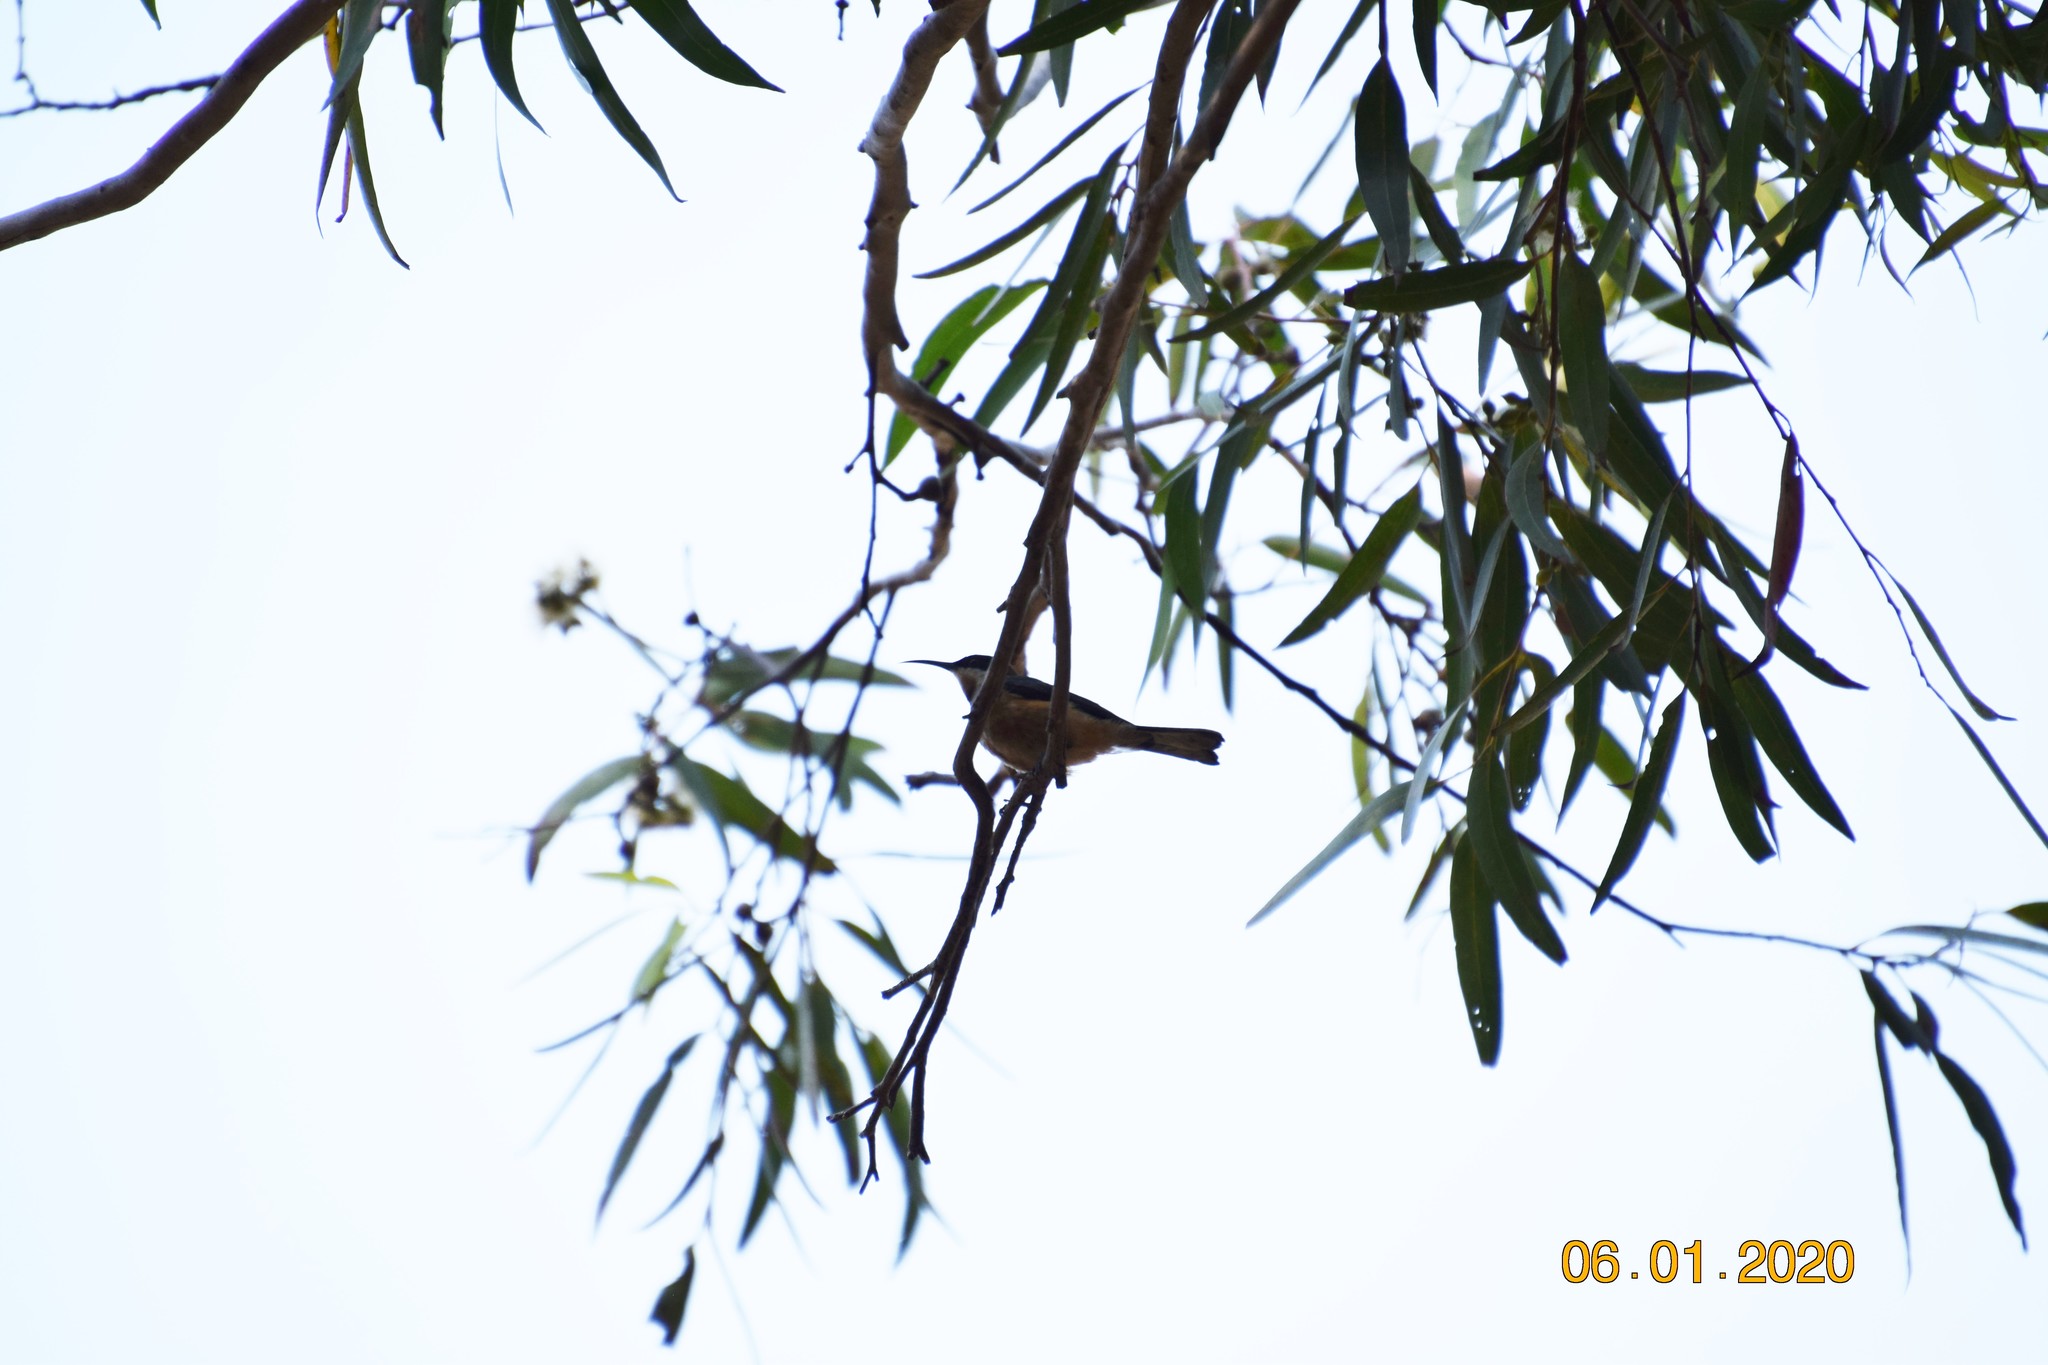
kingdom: Animalia
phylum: Chordata
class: Aves
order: Passeriformes
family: Meliphagidae
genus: Acanthorhynchus
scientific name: Acanthorhynchus tenuirostris
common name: Eastern spinebill
